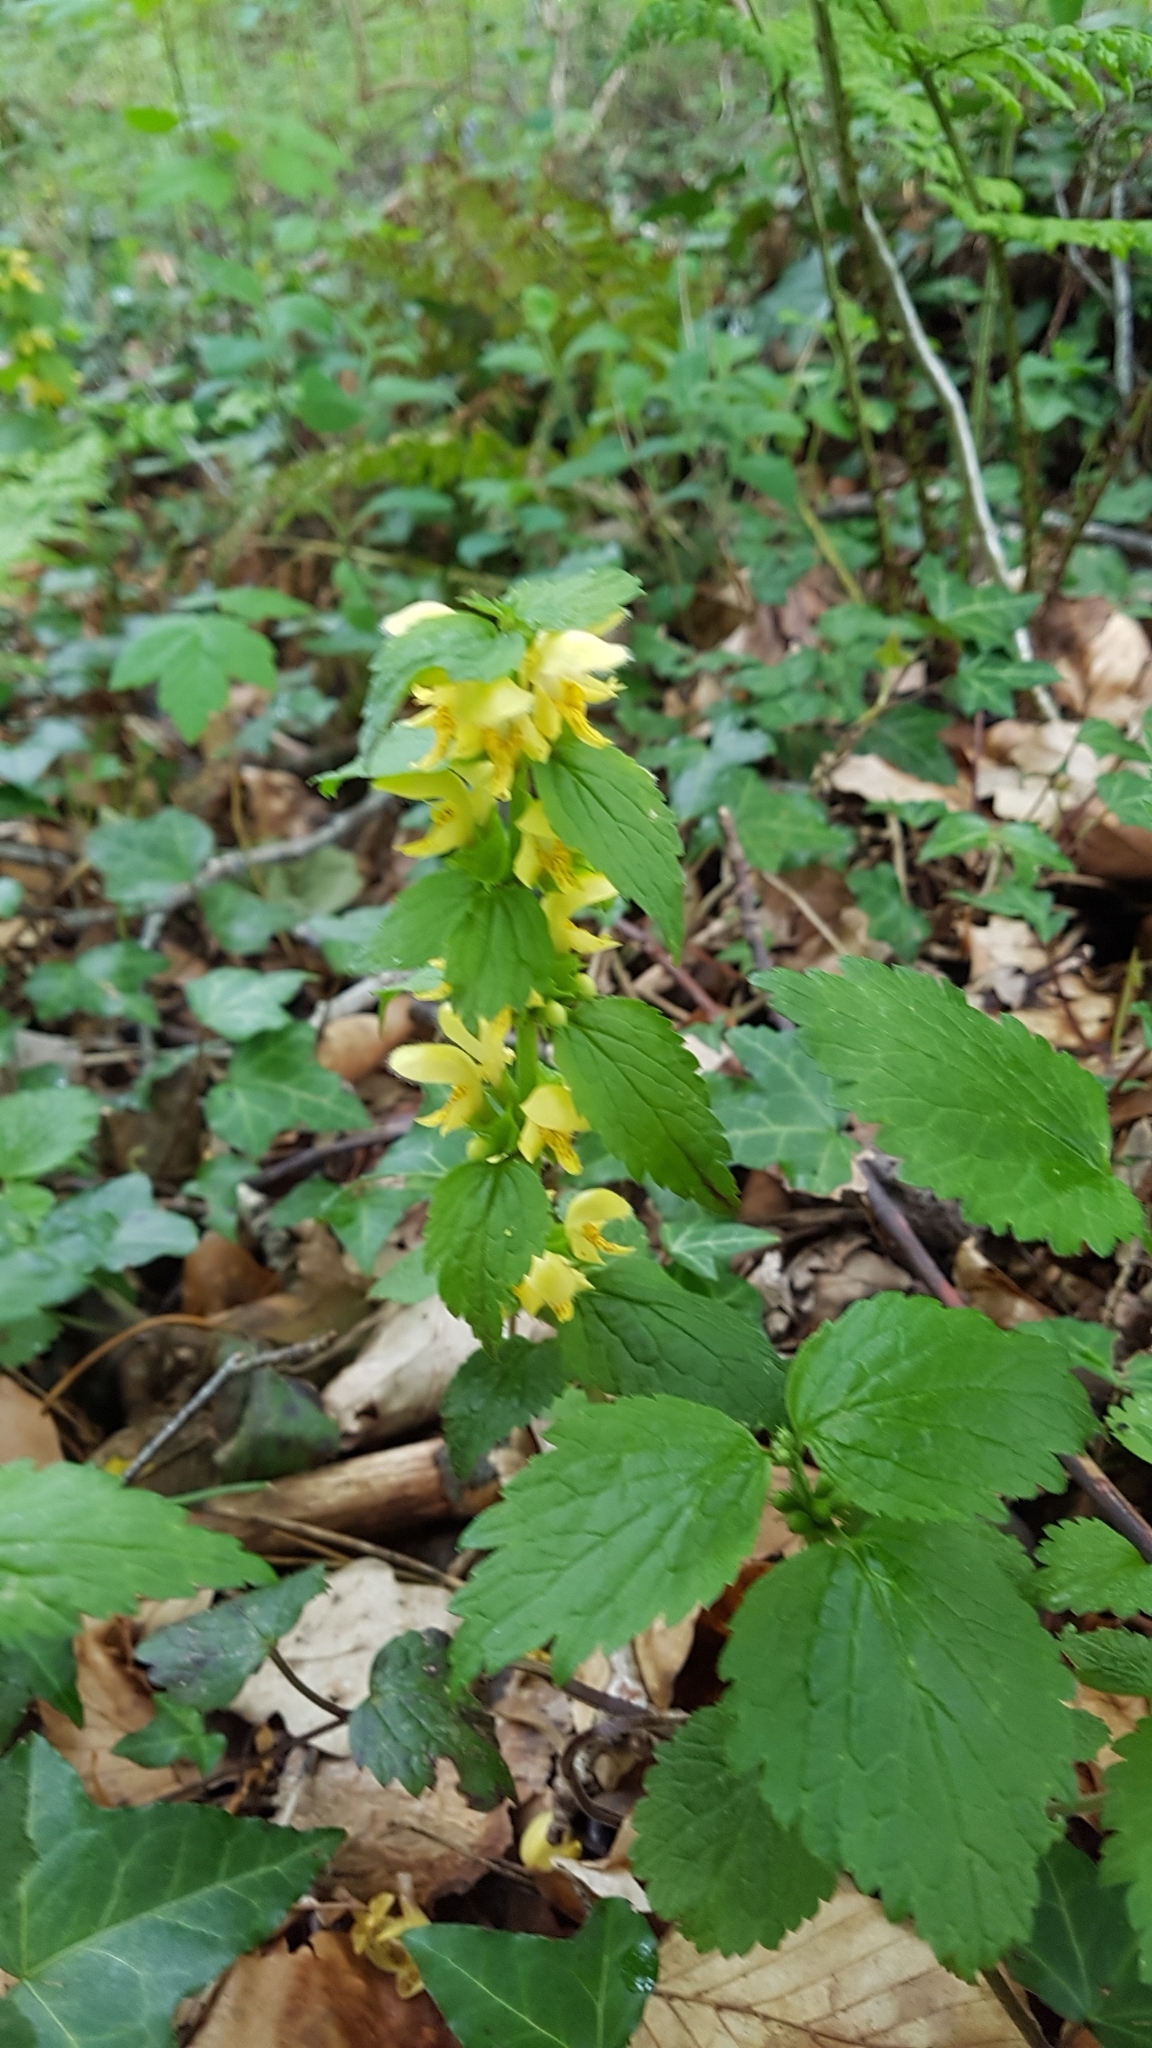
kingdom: Plantae
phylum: Tracheophyta
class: Magnoliopsida
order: Lamiales
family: Lamiaceae
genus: Lamium
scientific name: Lamium galeobdolon
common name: Yellow archangel
